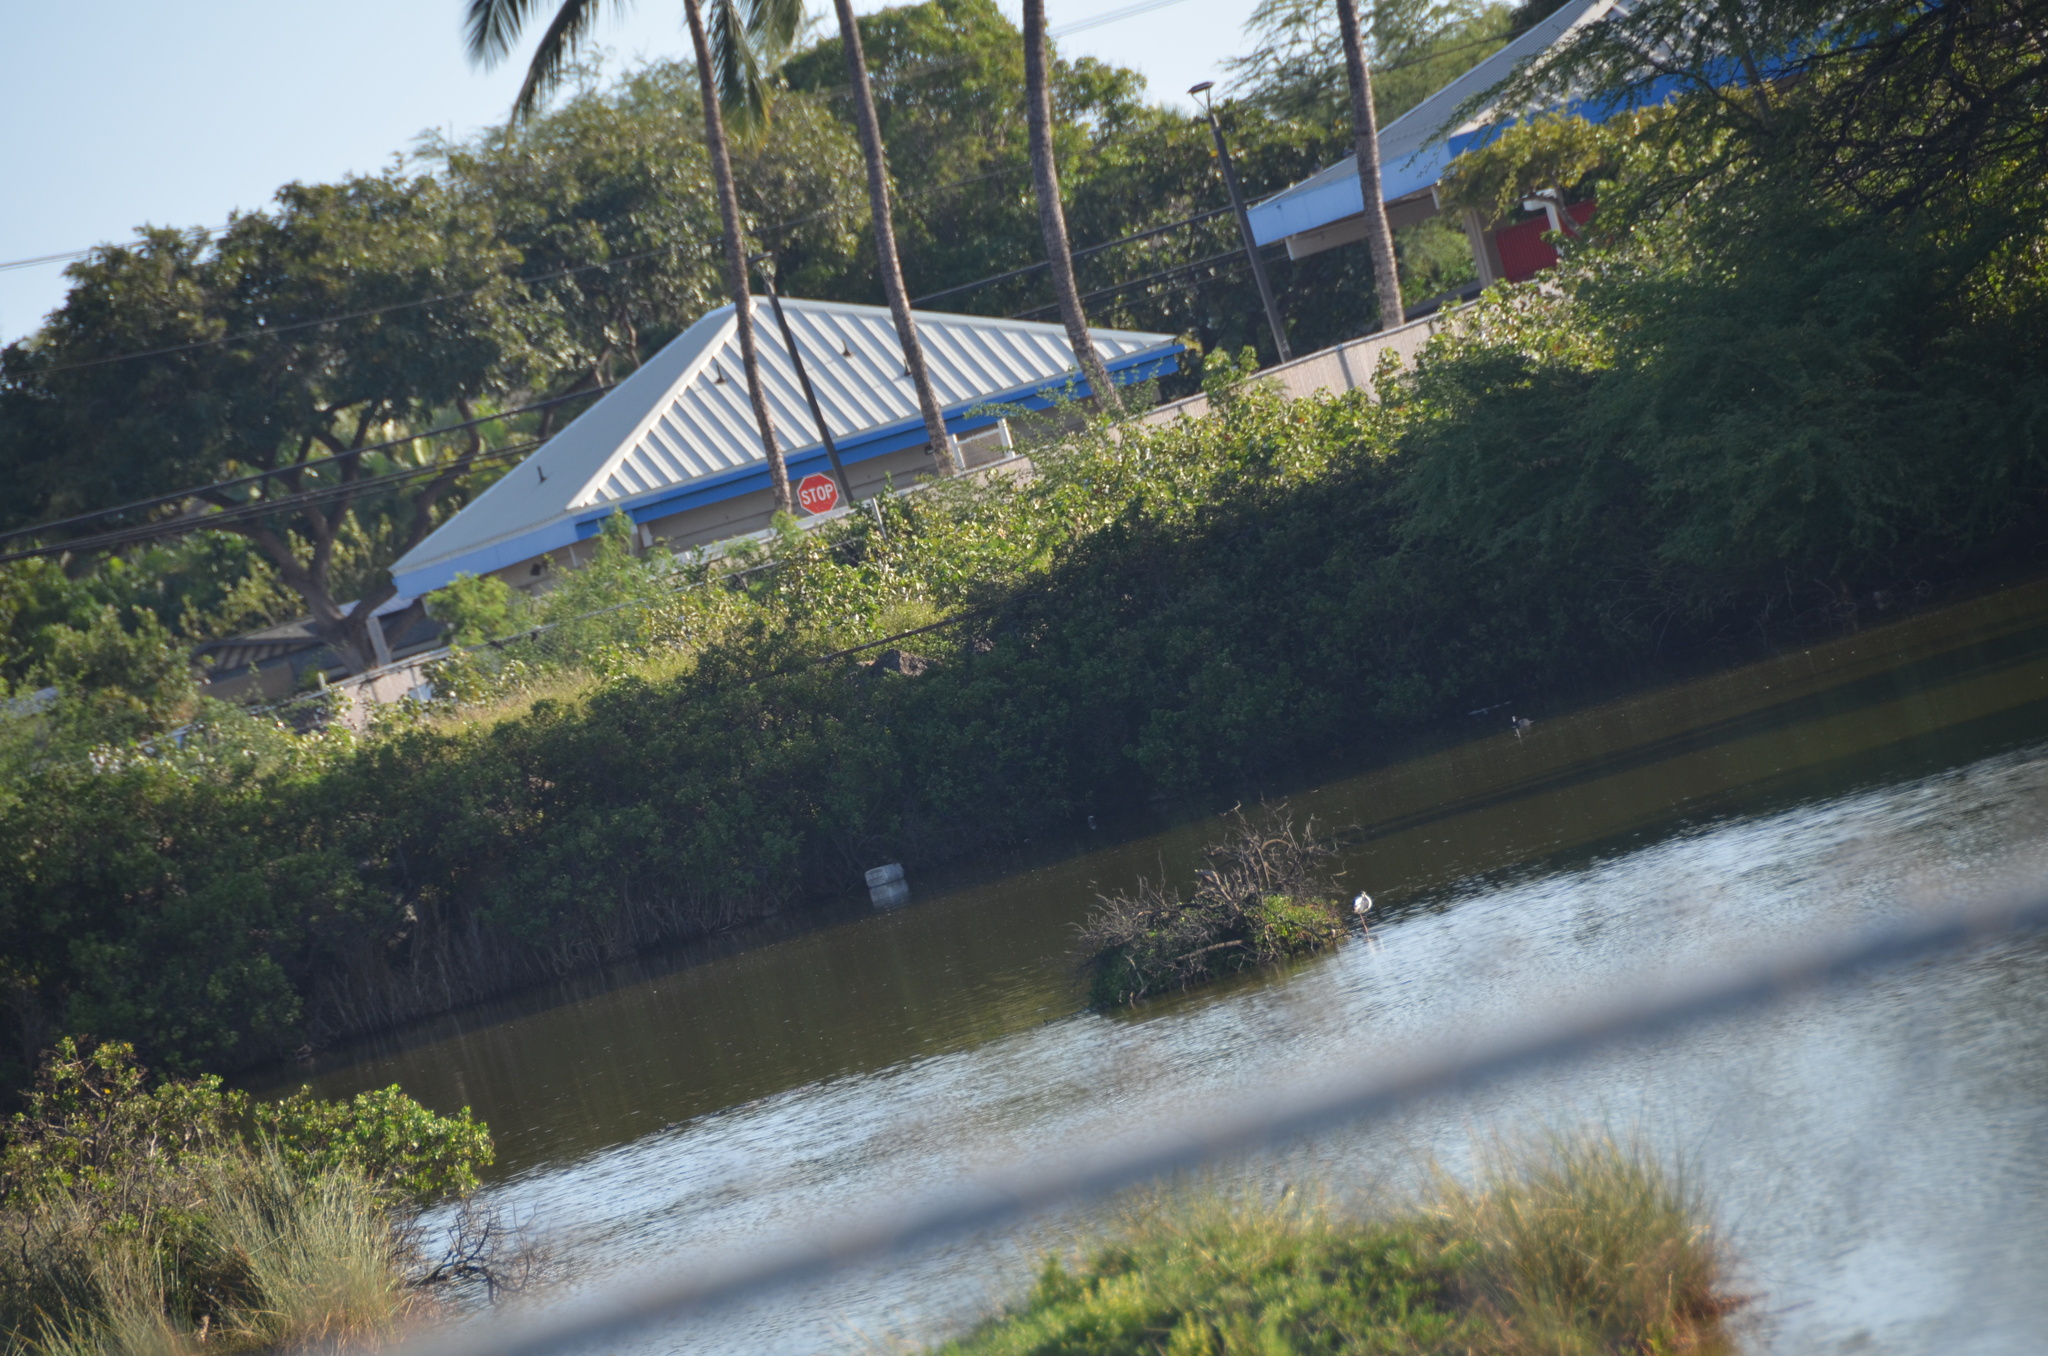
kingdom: Animalia
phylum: Chordata
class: Aves
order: Gruiformes
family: Rallidae
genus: Fulica
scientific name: Fulica alai
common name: Hawaiian coot
